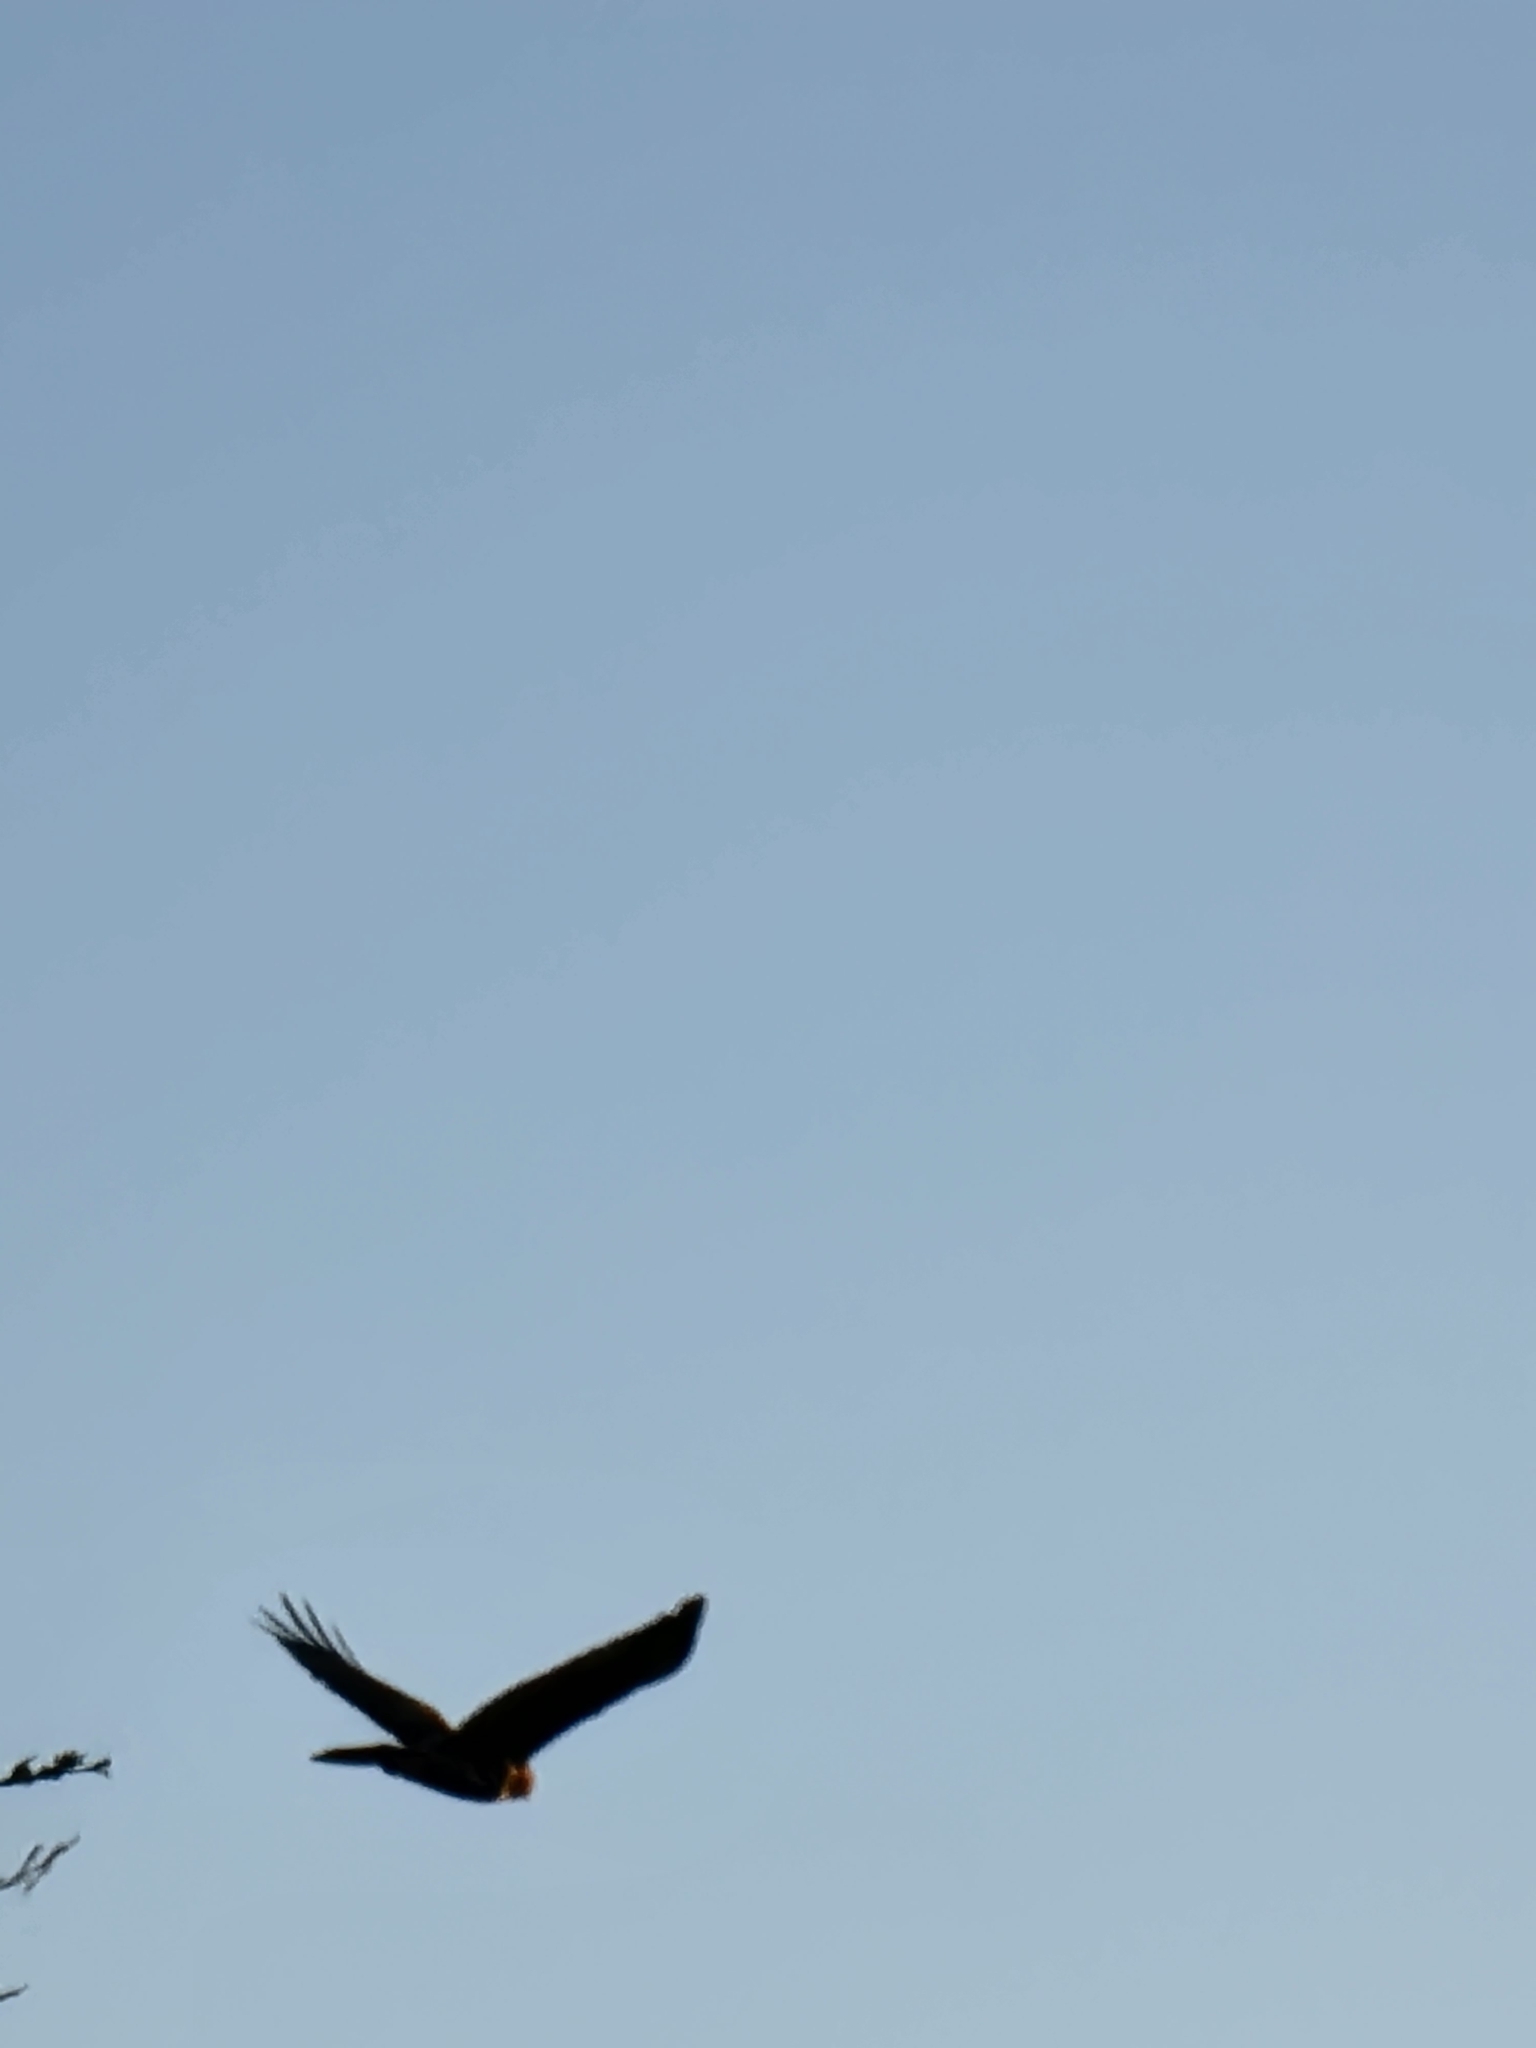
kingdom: Animalia
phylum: Chordata
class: Aves
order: Accipitriformes
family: Accipitridae
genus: Buteo
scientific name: Buteo jamaicensis
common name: Red-tailed hawk
